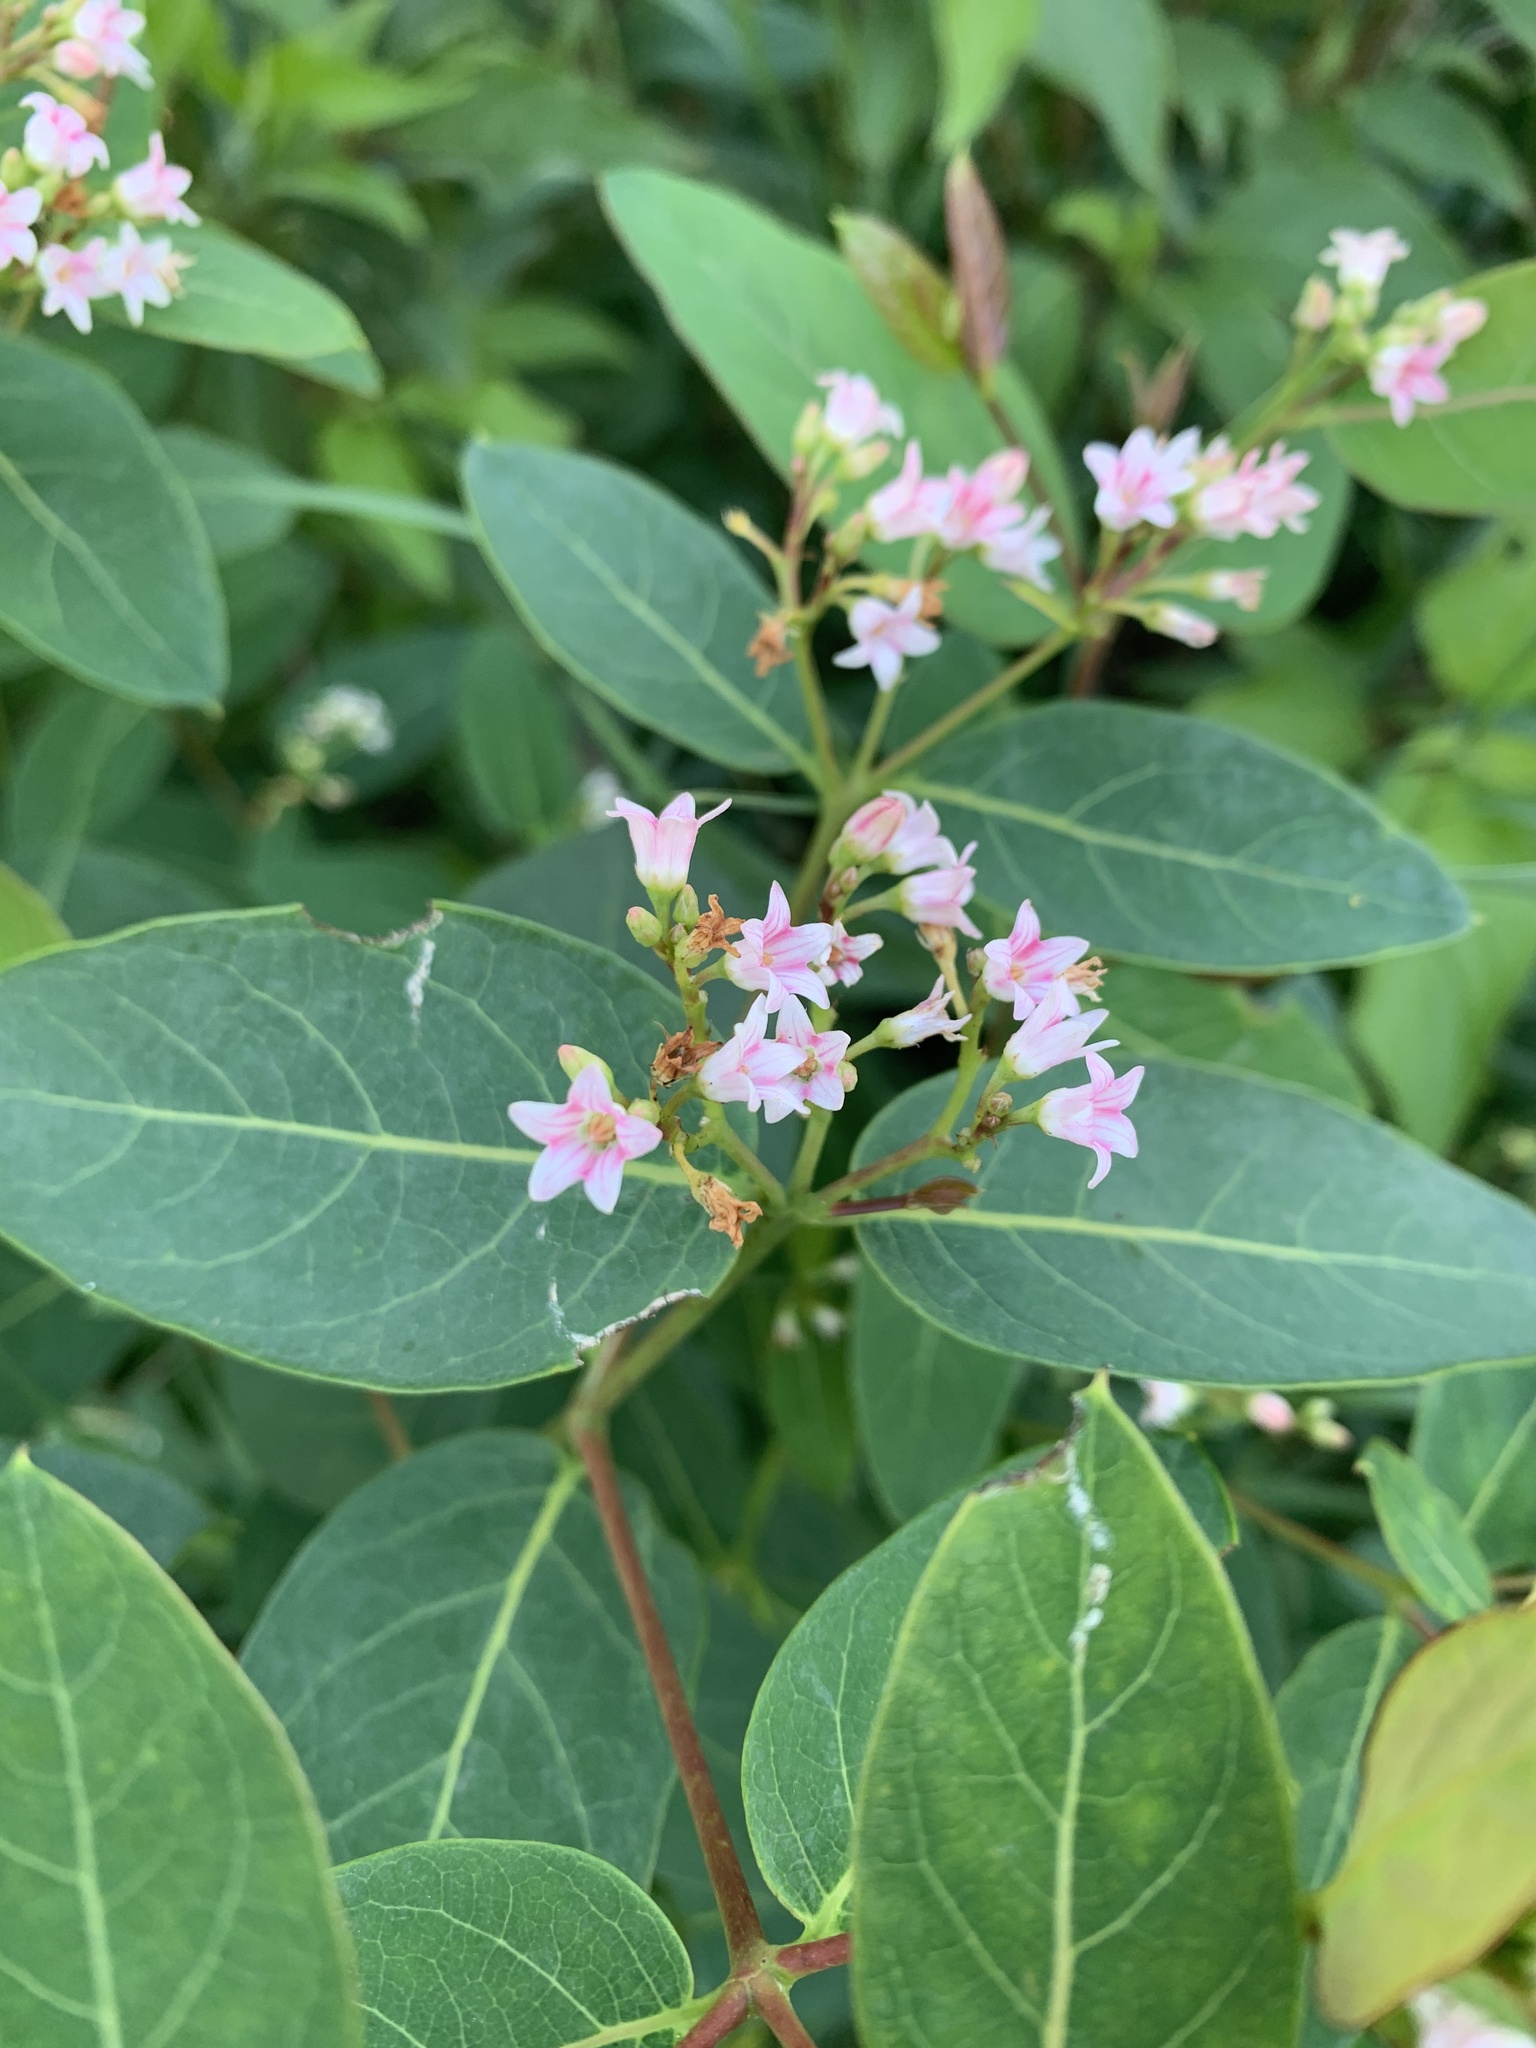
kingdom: Plantae
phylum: Tracheophyta
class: Magnoliopsida
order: Gentianales
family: Apocynaceae
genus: Apocynum
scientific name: Apocynum androsaemifolium
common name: Spreading dogbane
